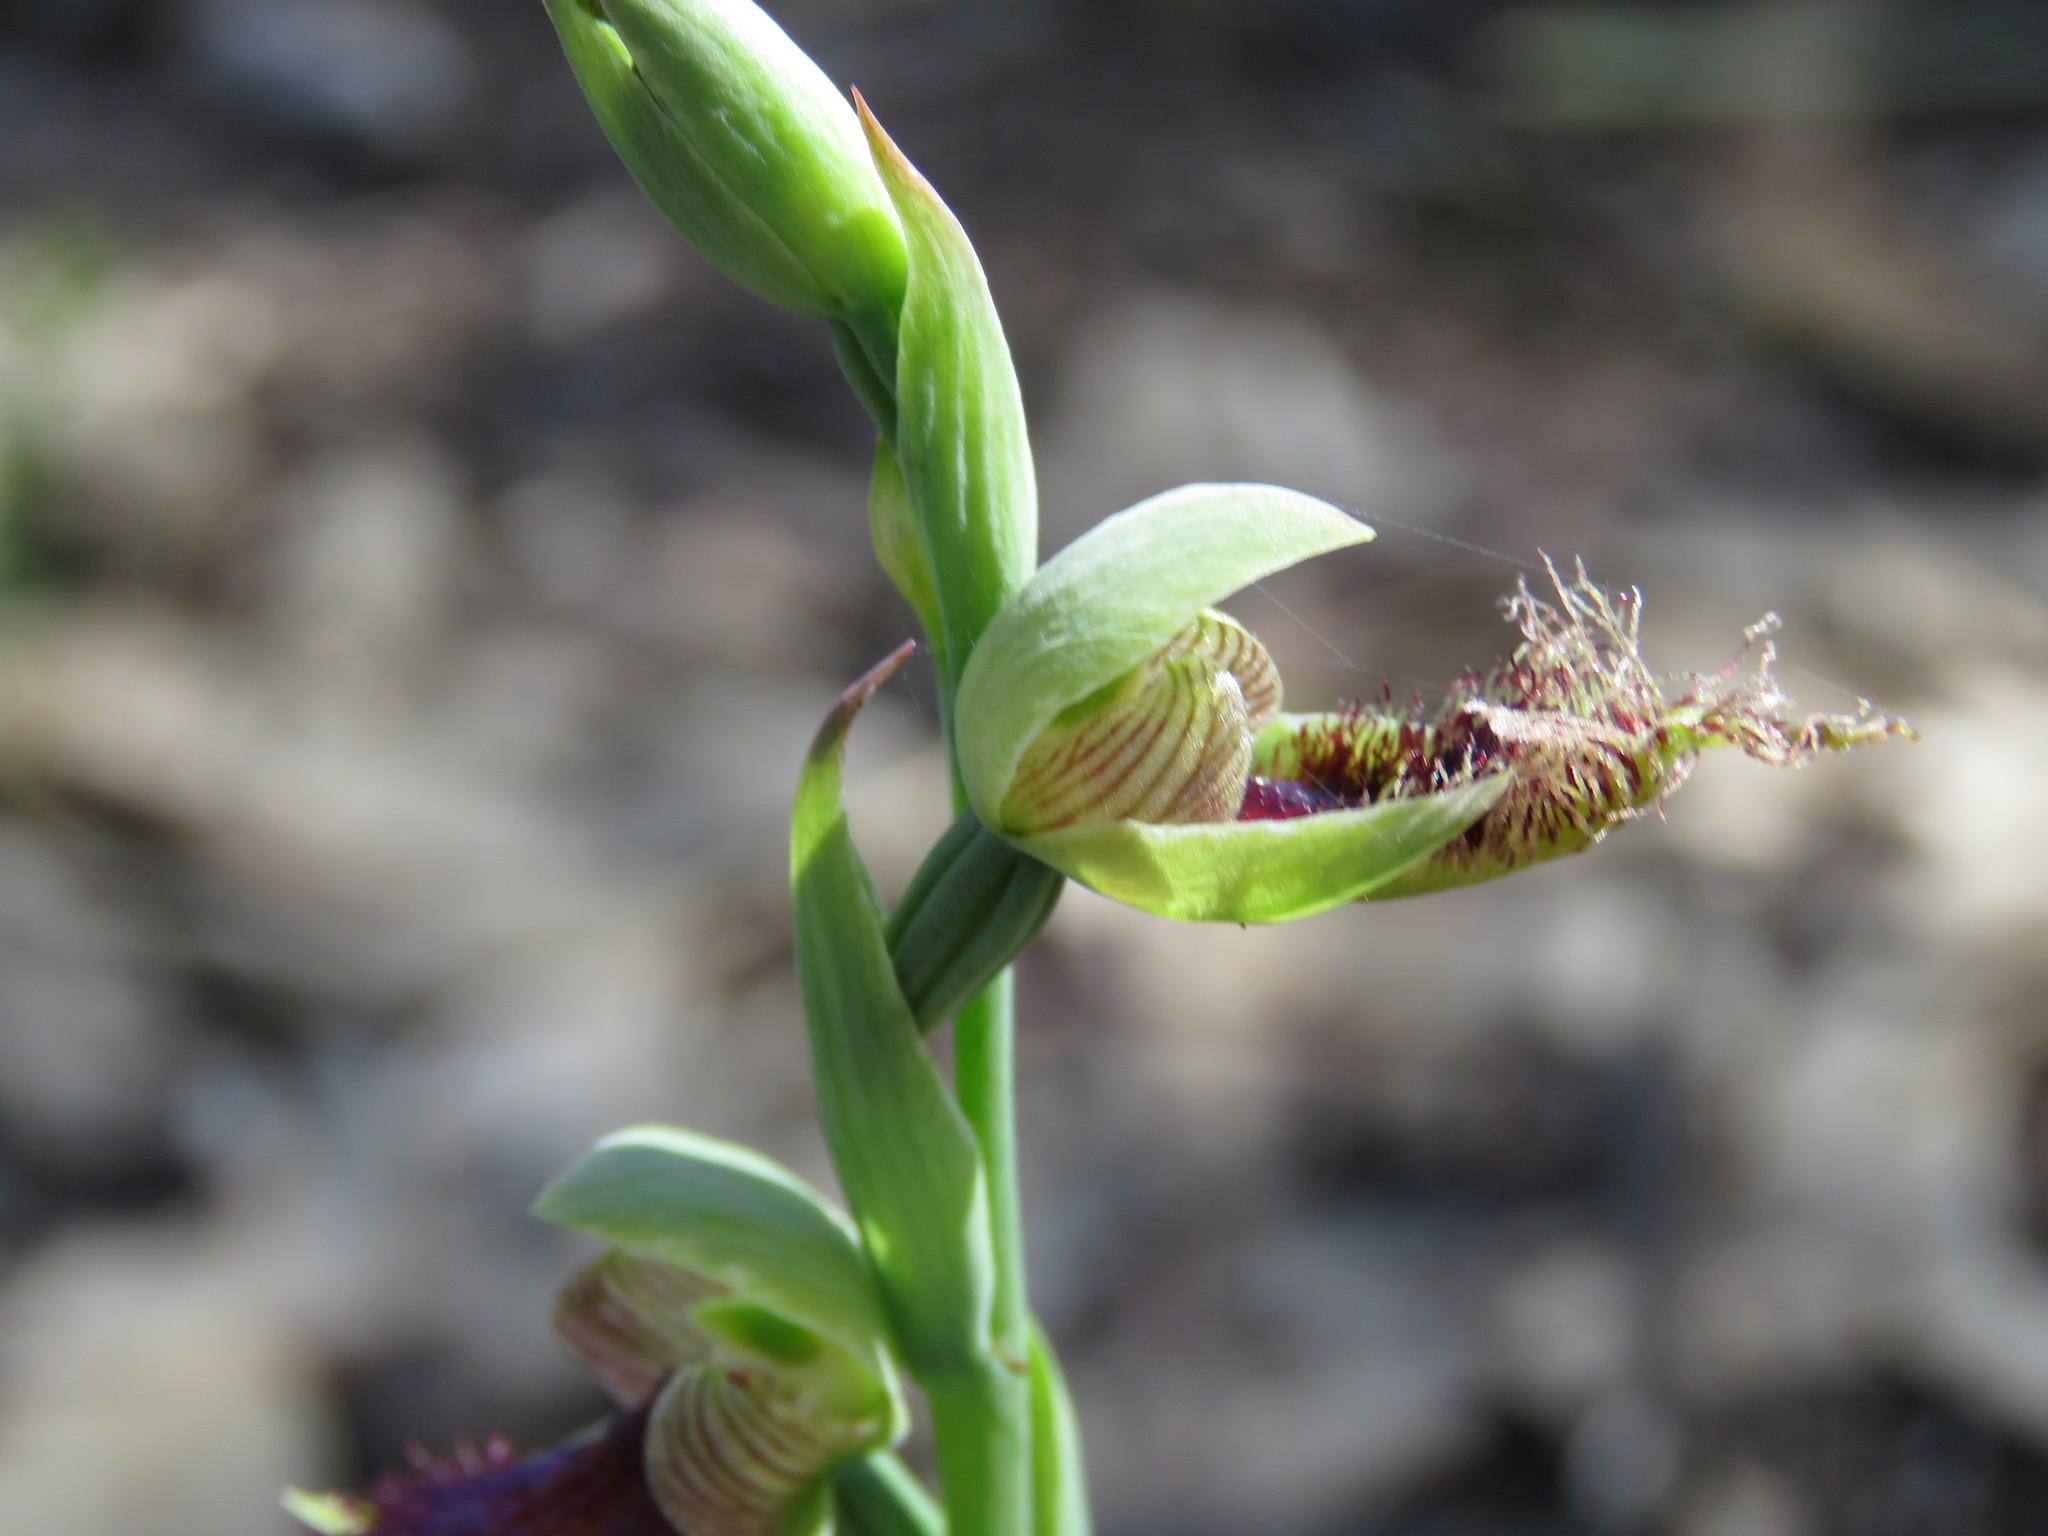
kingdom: Plantae
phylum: Tracheophyta
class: Liliopsida
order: Asparagales
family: Orchidaceae
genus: Calochilus
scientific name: Calochilus robertsonii
